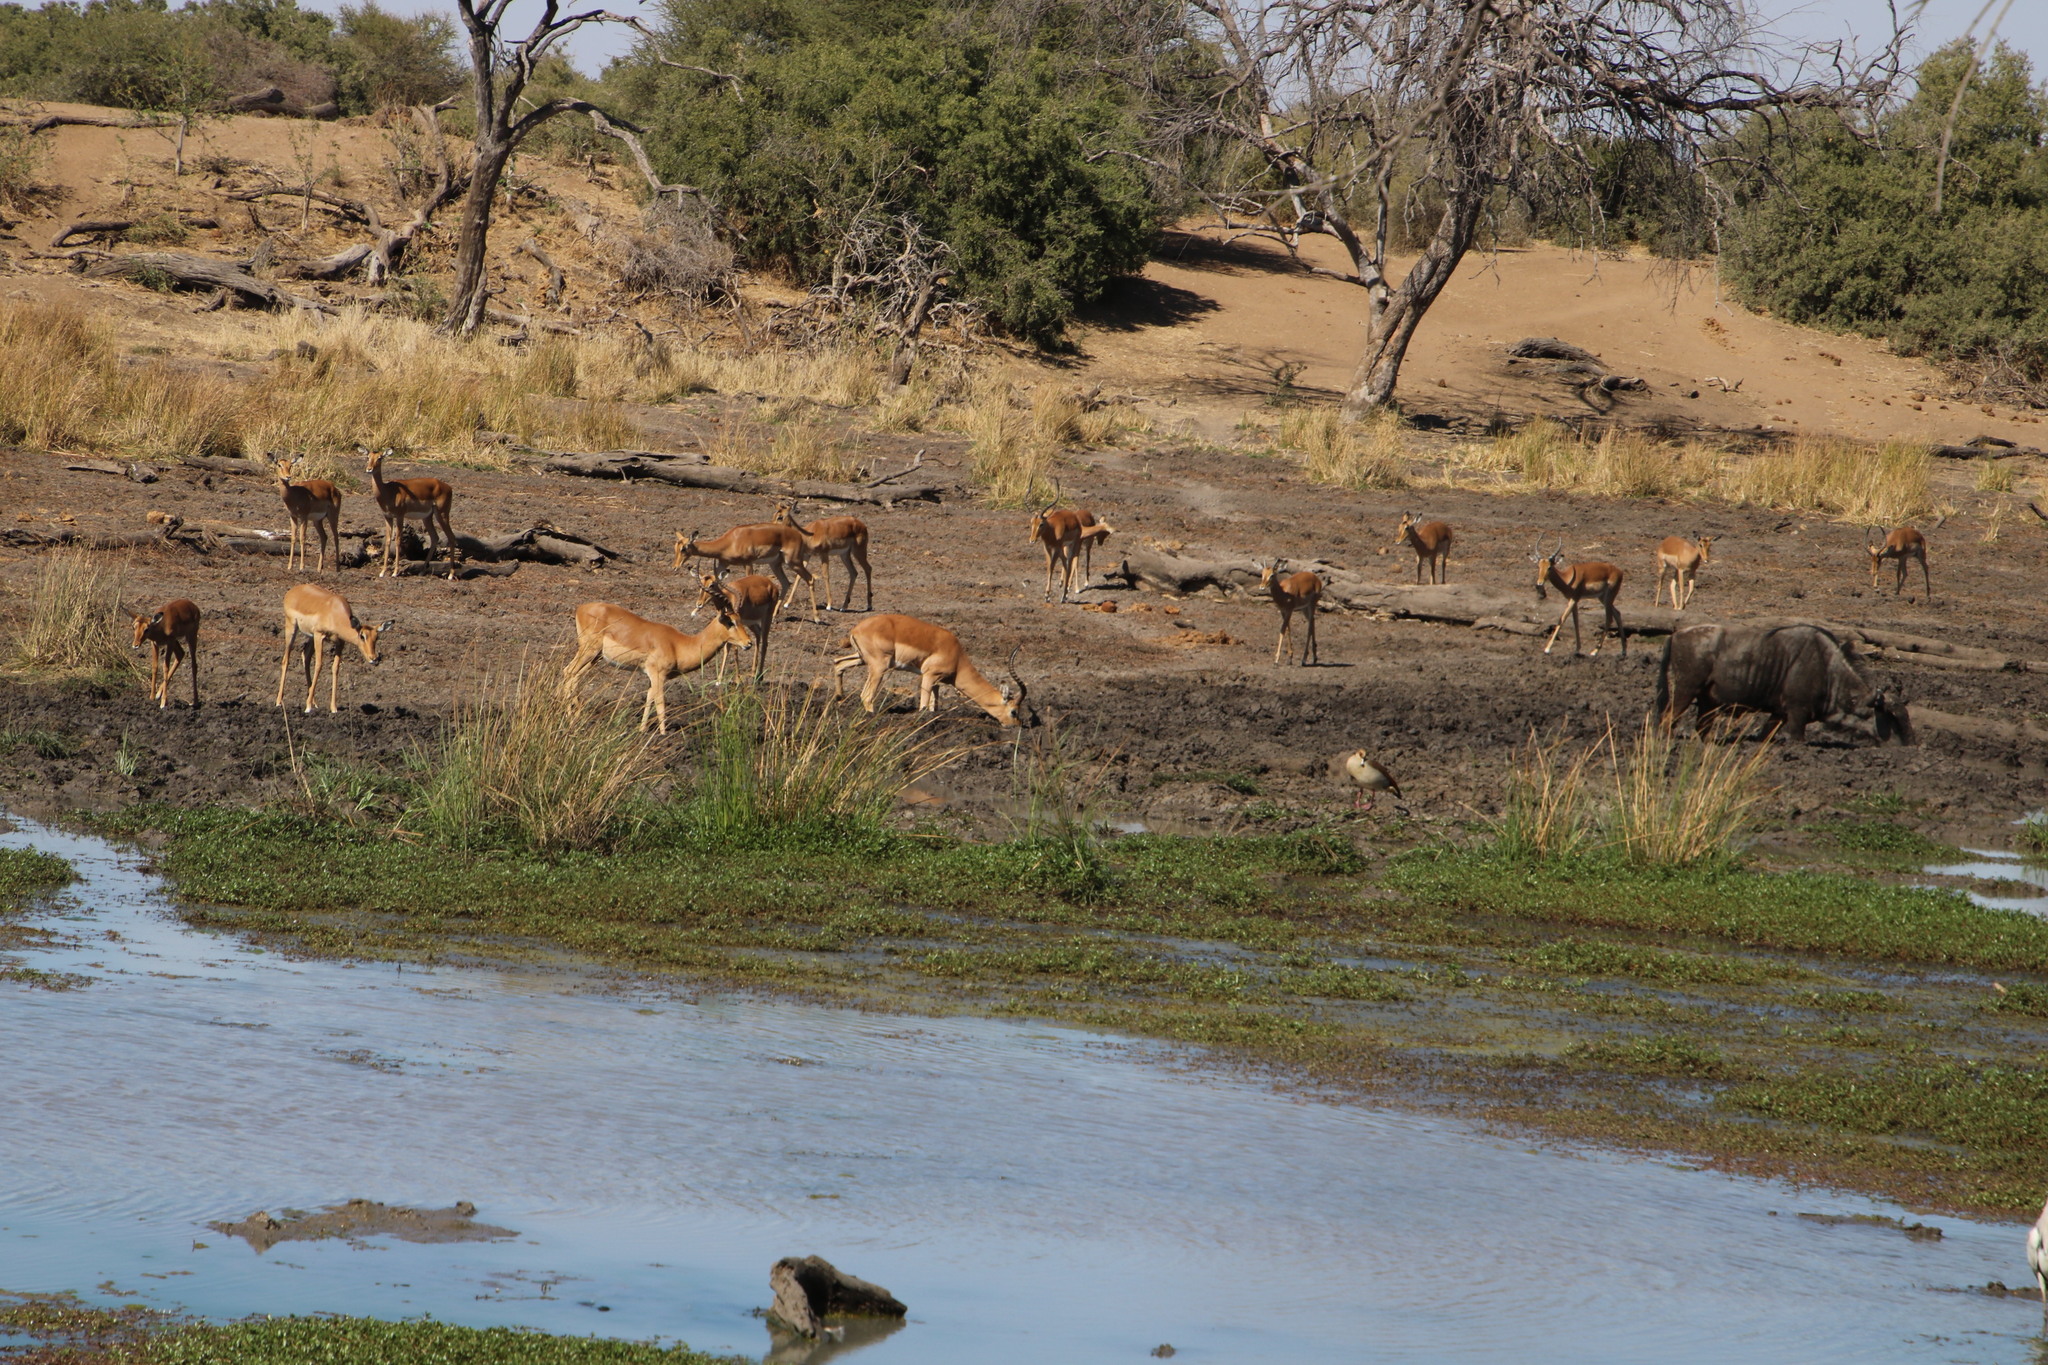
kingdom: Animalia
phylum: Chordata
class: Mammalia
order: Artiodactyla
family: Bovidae
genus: Aepyceros
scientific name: Aepyceros melampus
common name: Impala
